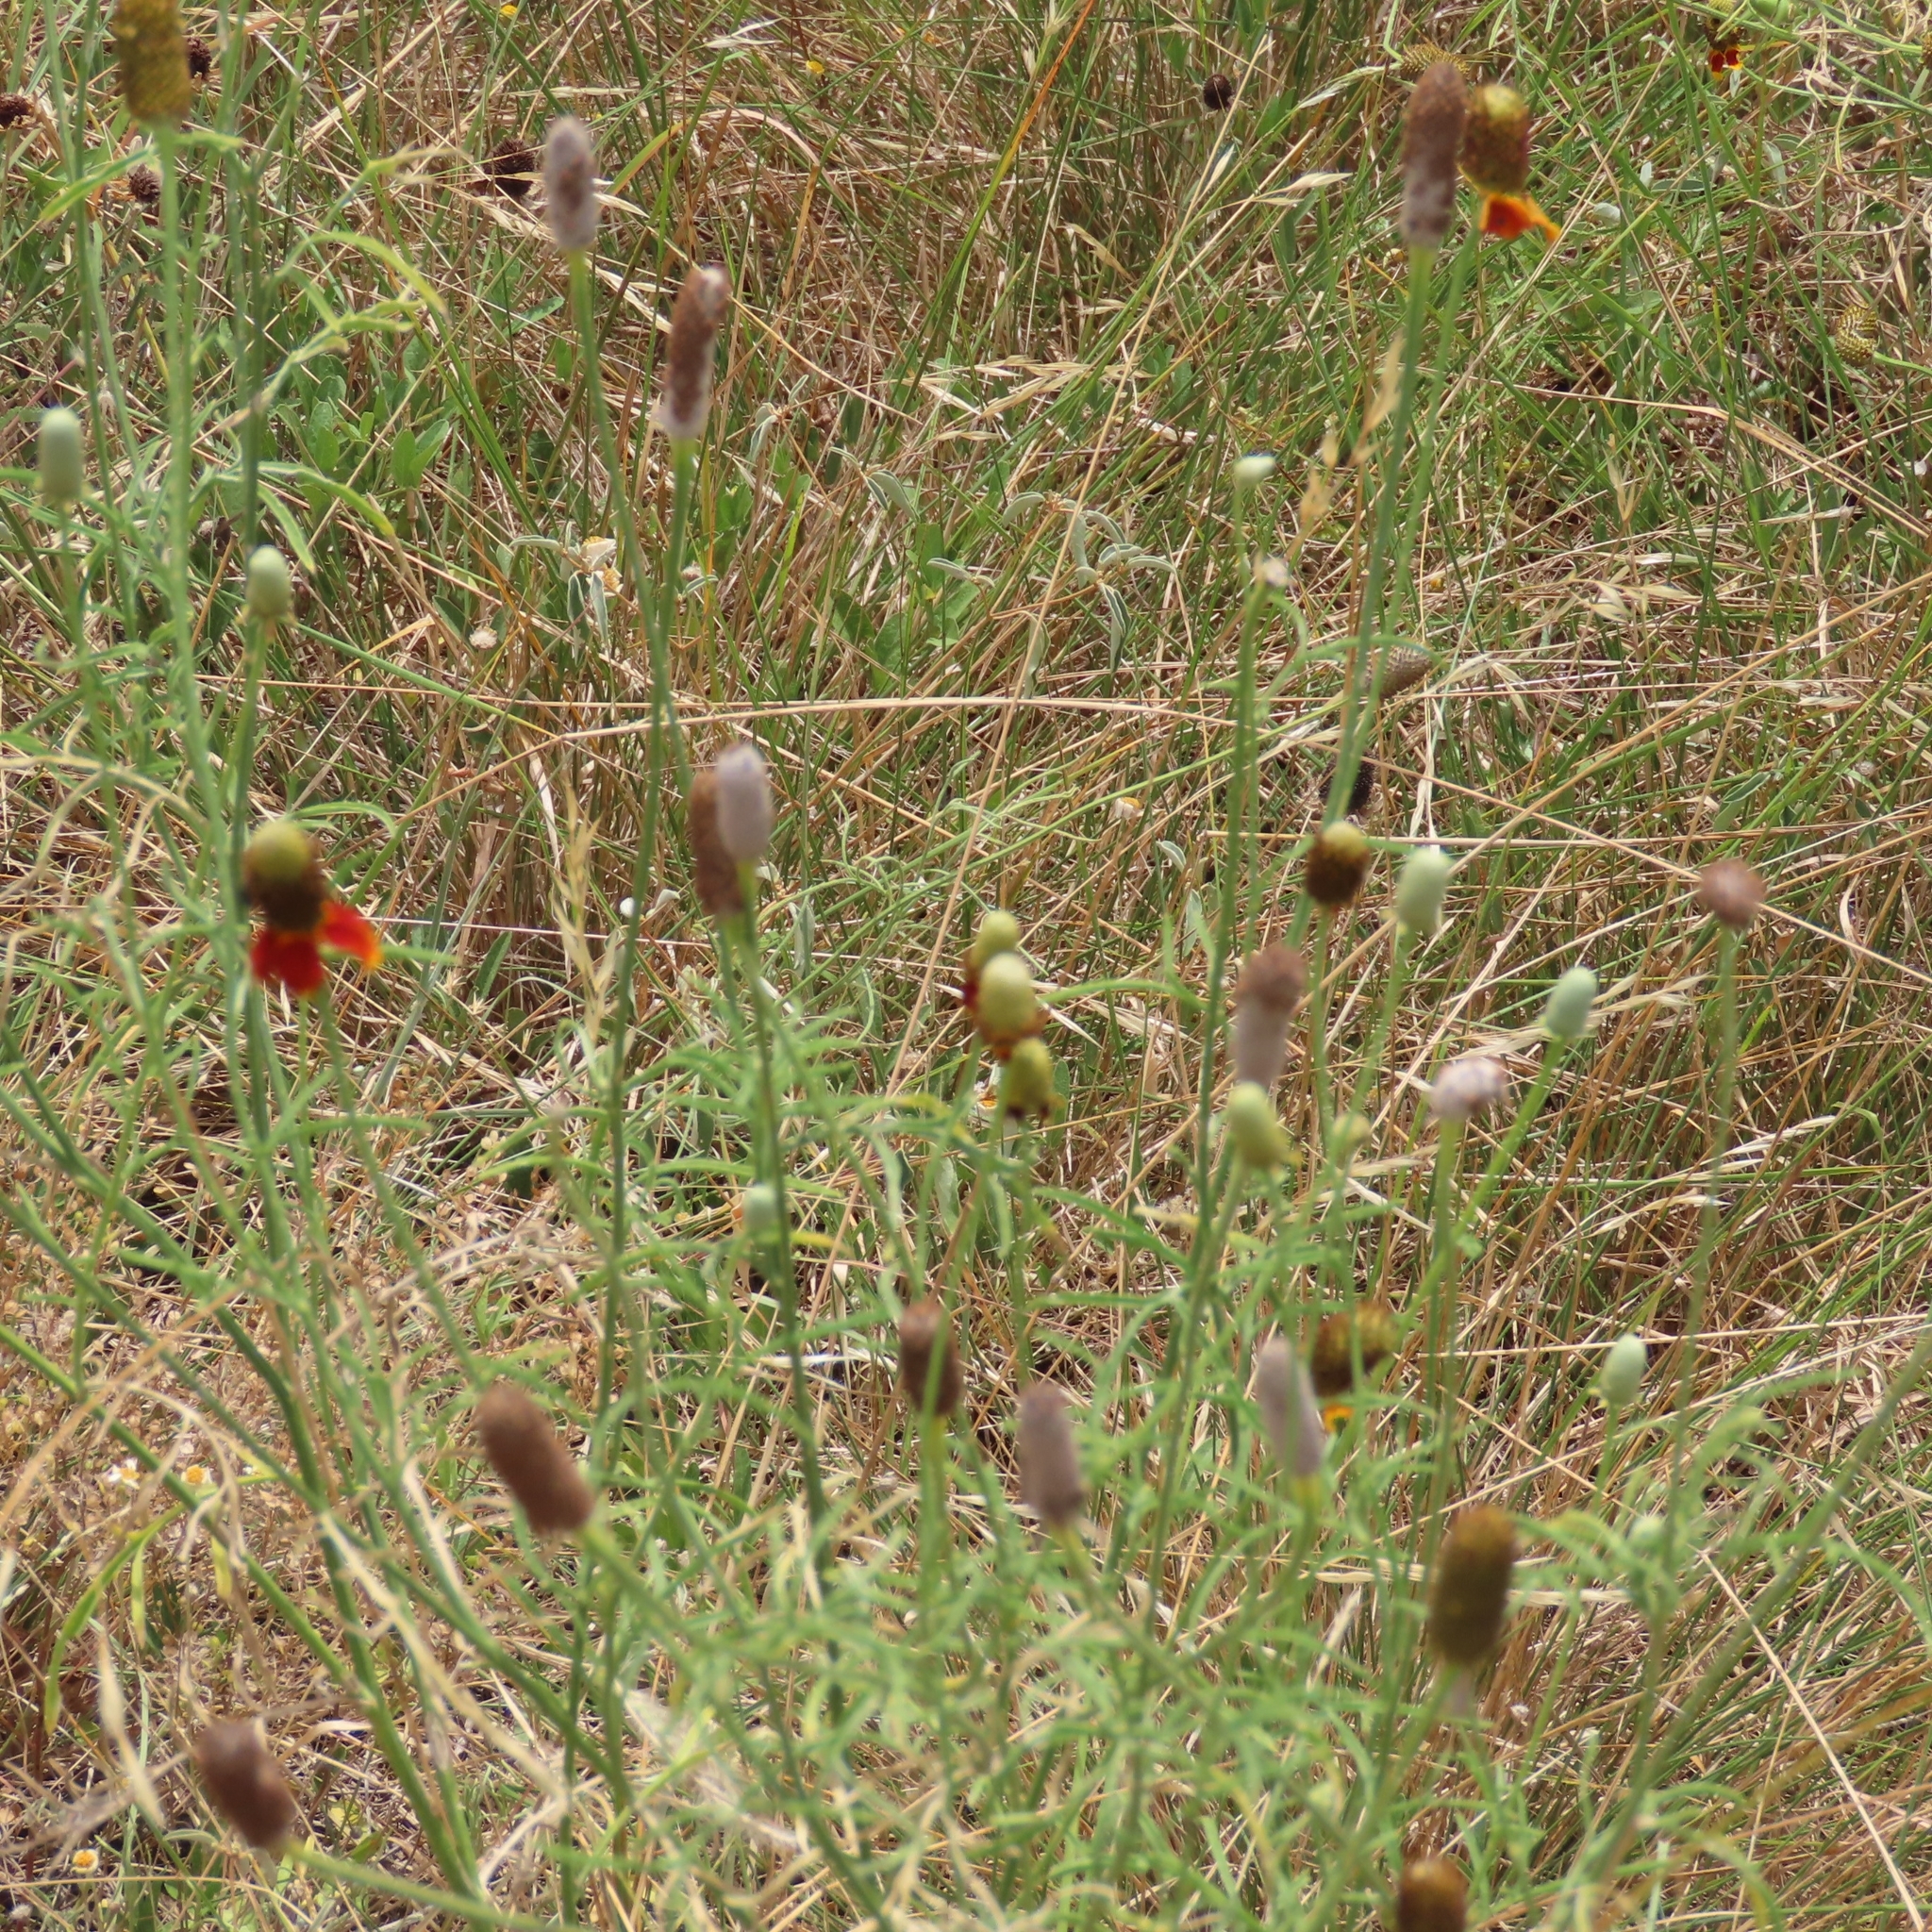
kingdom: Plantae
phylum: Tracheophyta
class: Magnoliopsida
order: Asterales
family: Asteraceae
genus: Ratibida
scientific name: Ratibida columnifera
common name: Prairie coneflower
